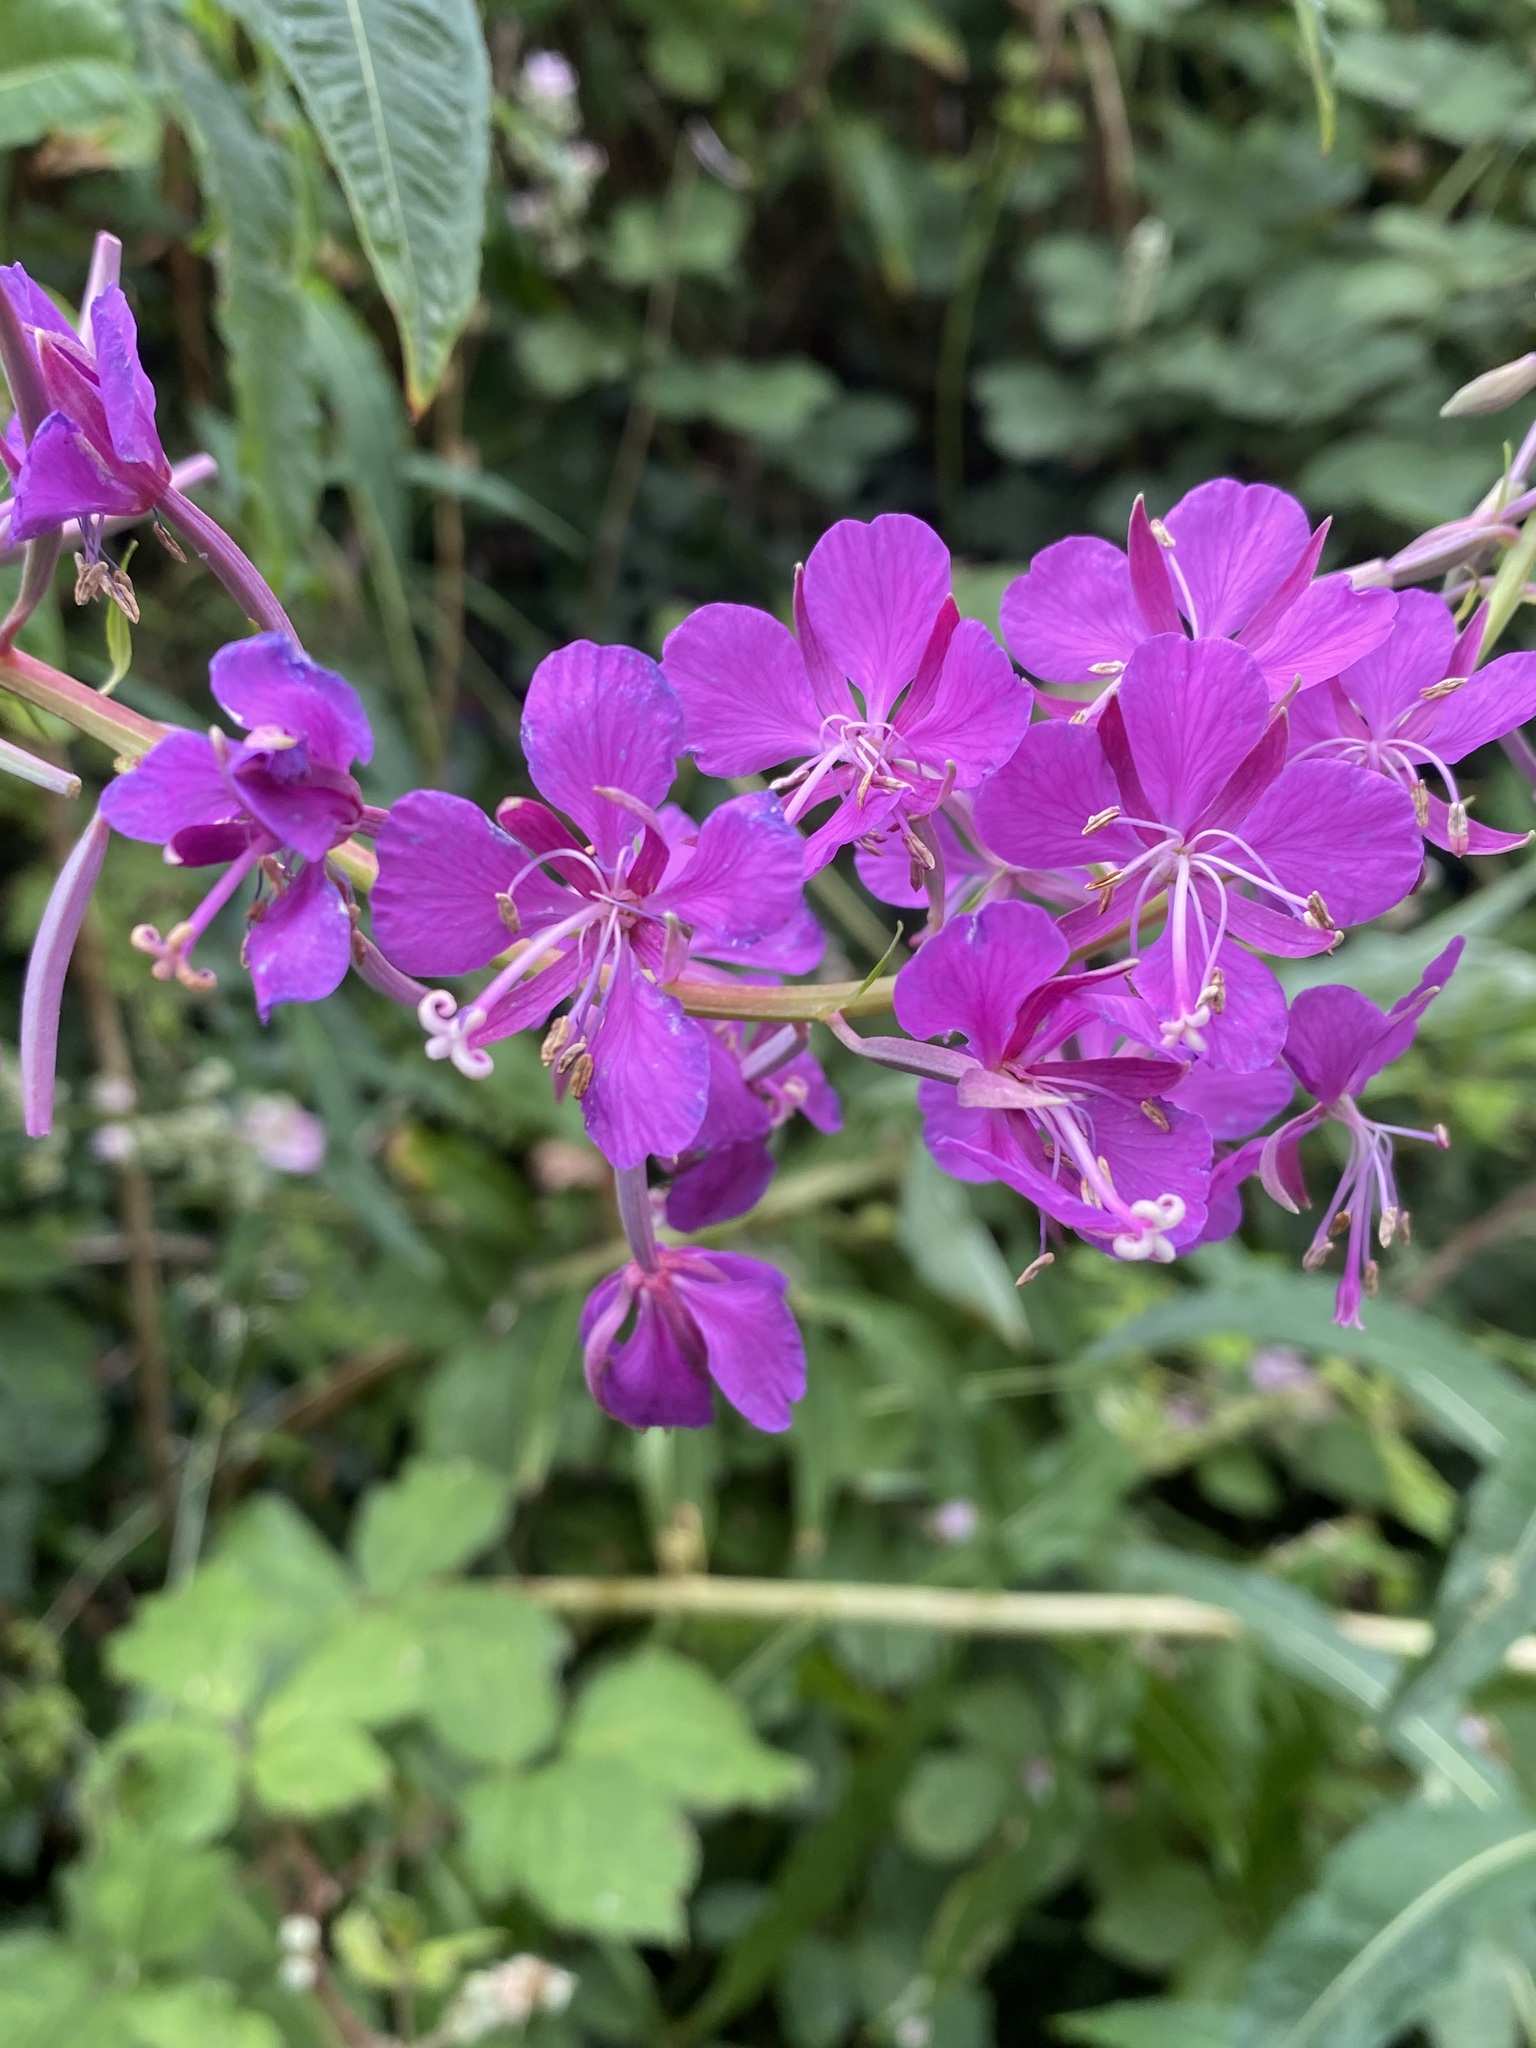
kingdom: Plantae
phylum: Tracheophyta
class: Magnoliopsida
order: Myrtales
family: Onagraceae
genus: Chamaenerion
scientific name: Chamaenerion angustifolium
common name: Fireweed
